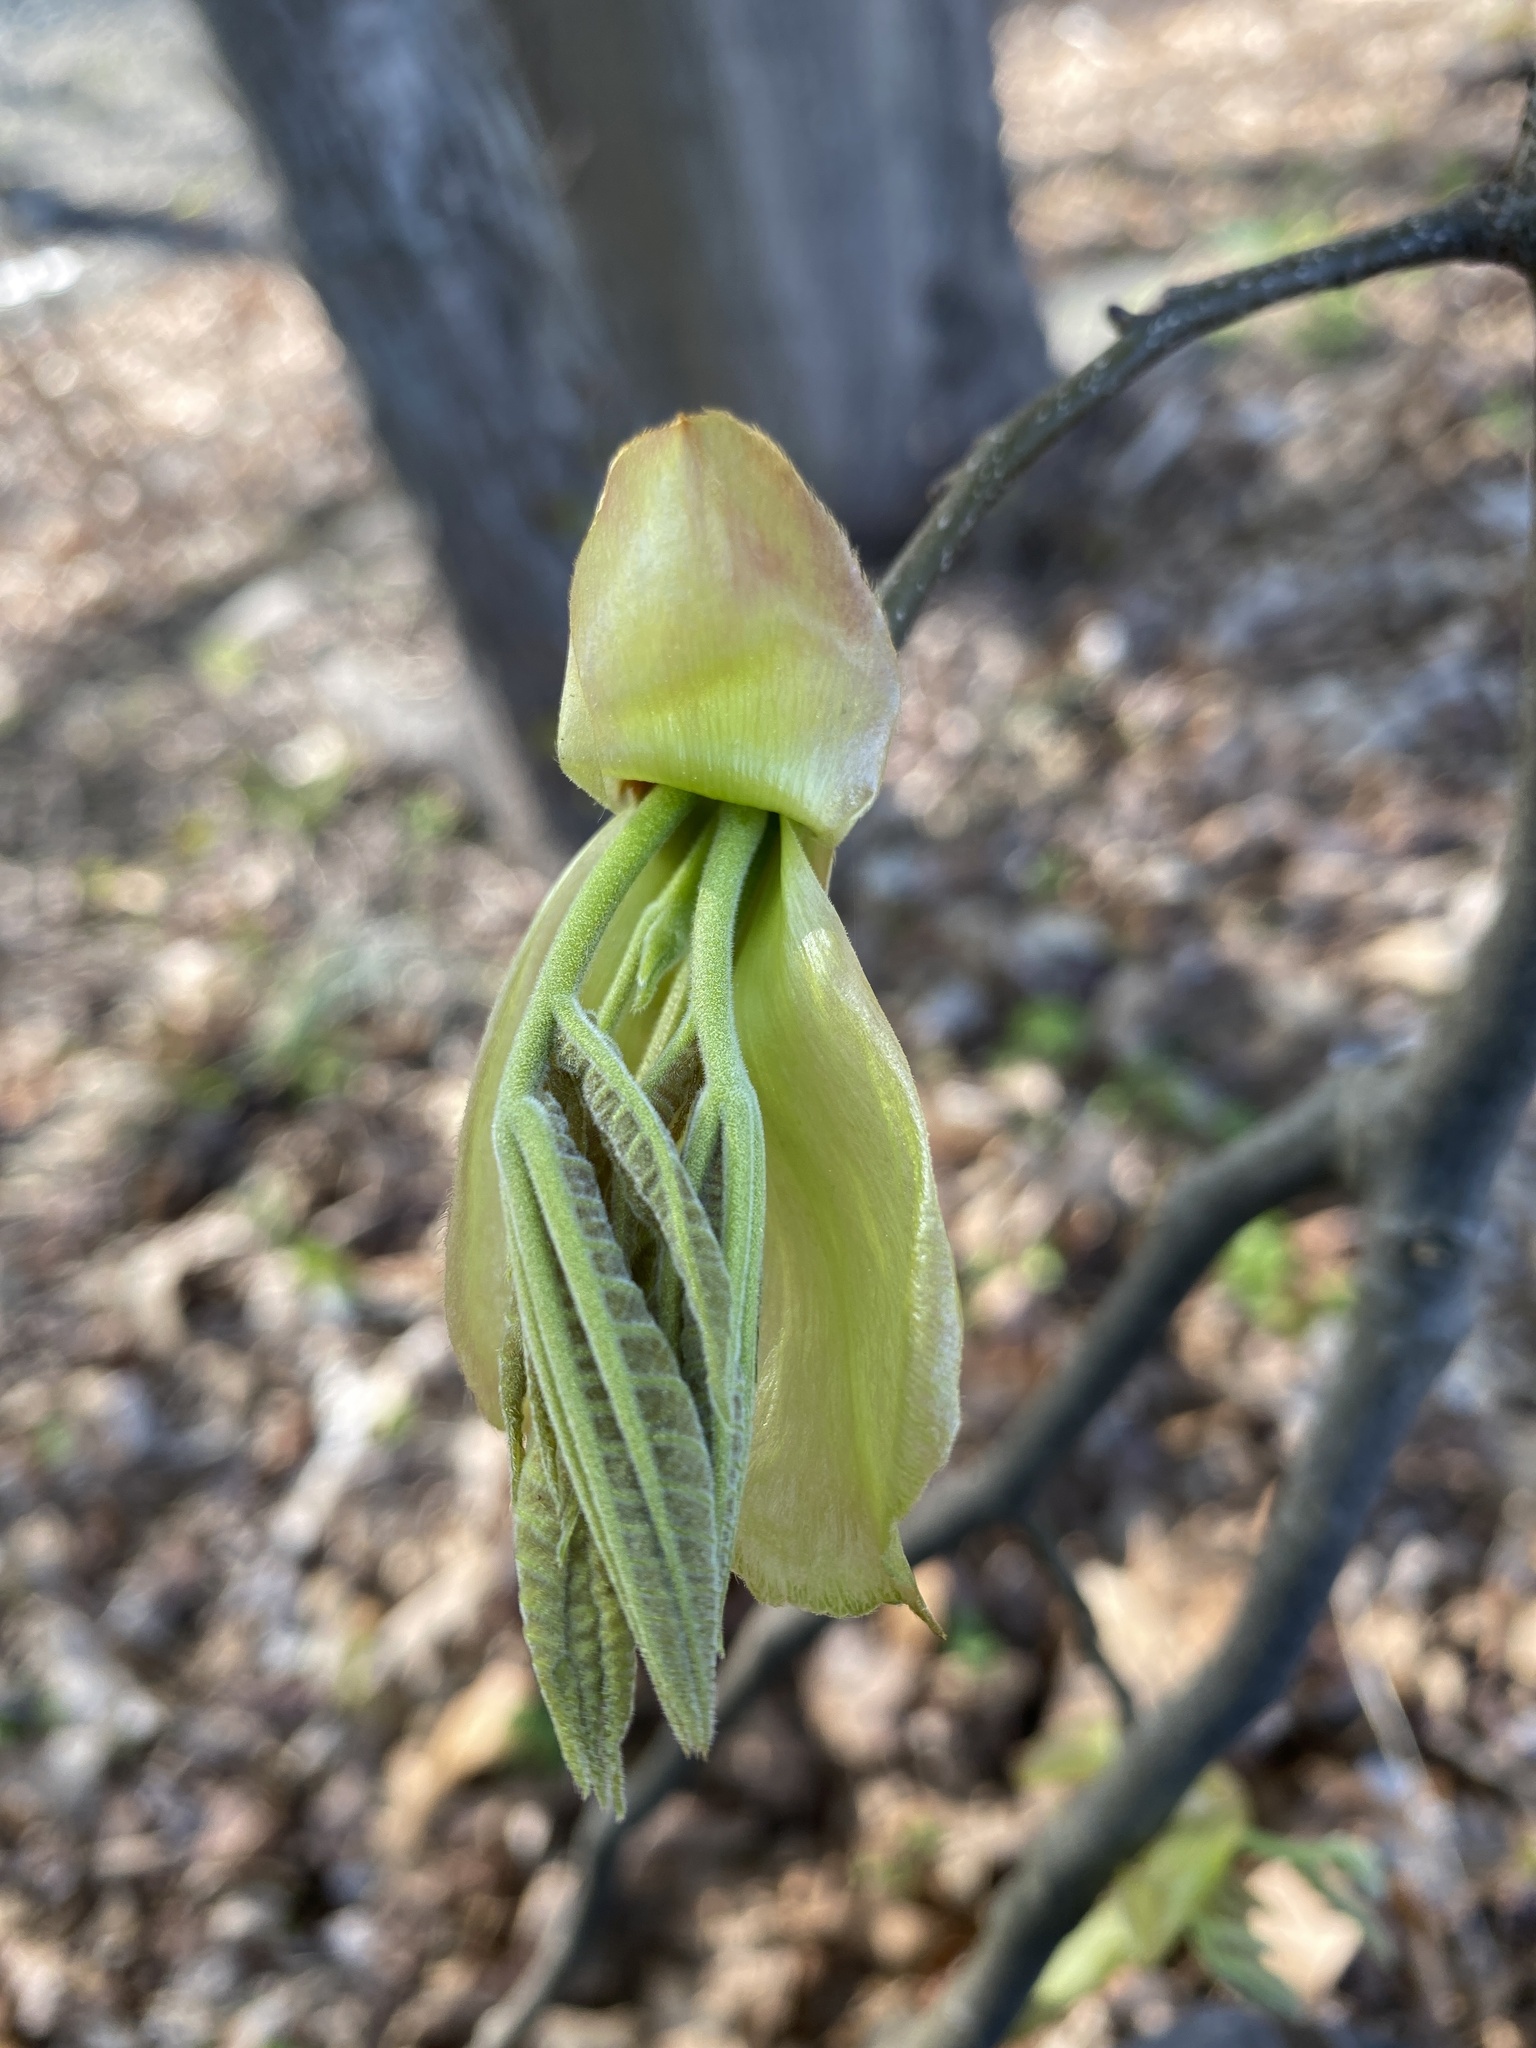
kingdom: Plantae
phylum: Tracheophyta
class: Magnoliopsida
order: Fagales
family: Juglandaceae
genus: Carya
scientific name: Carya ovata
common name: Shagbark hickory
